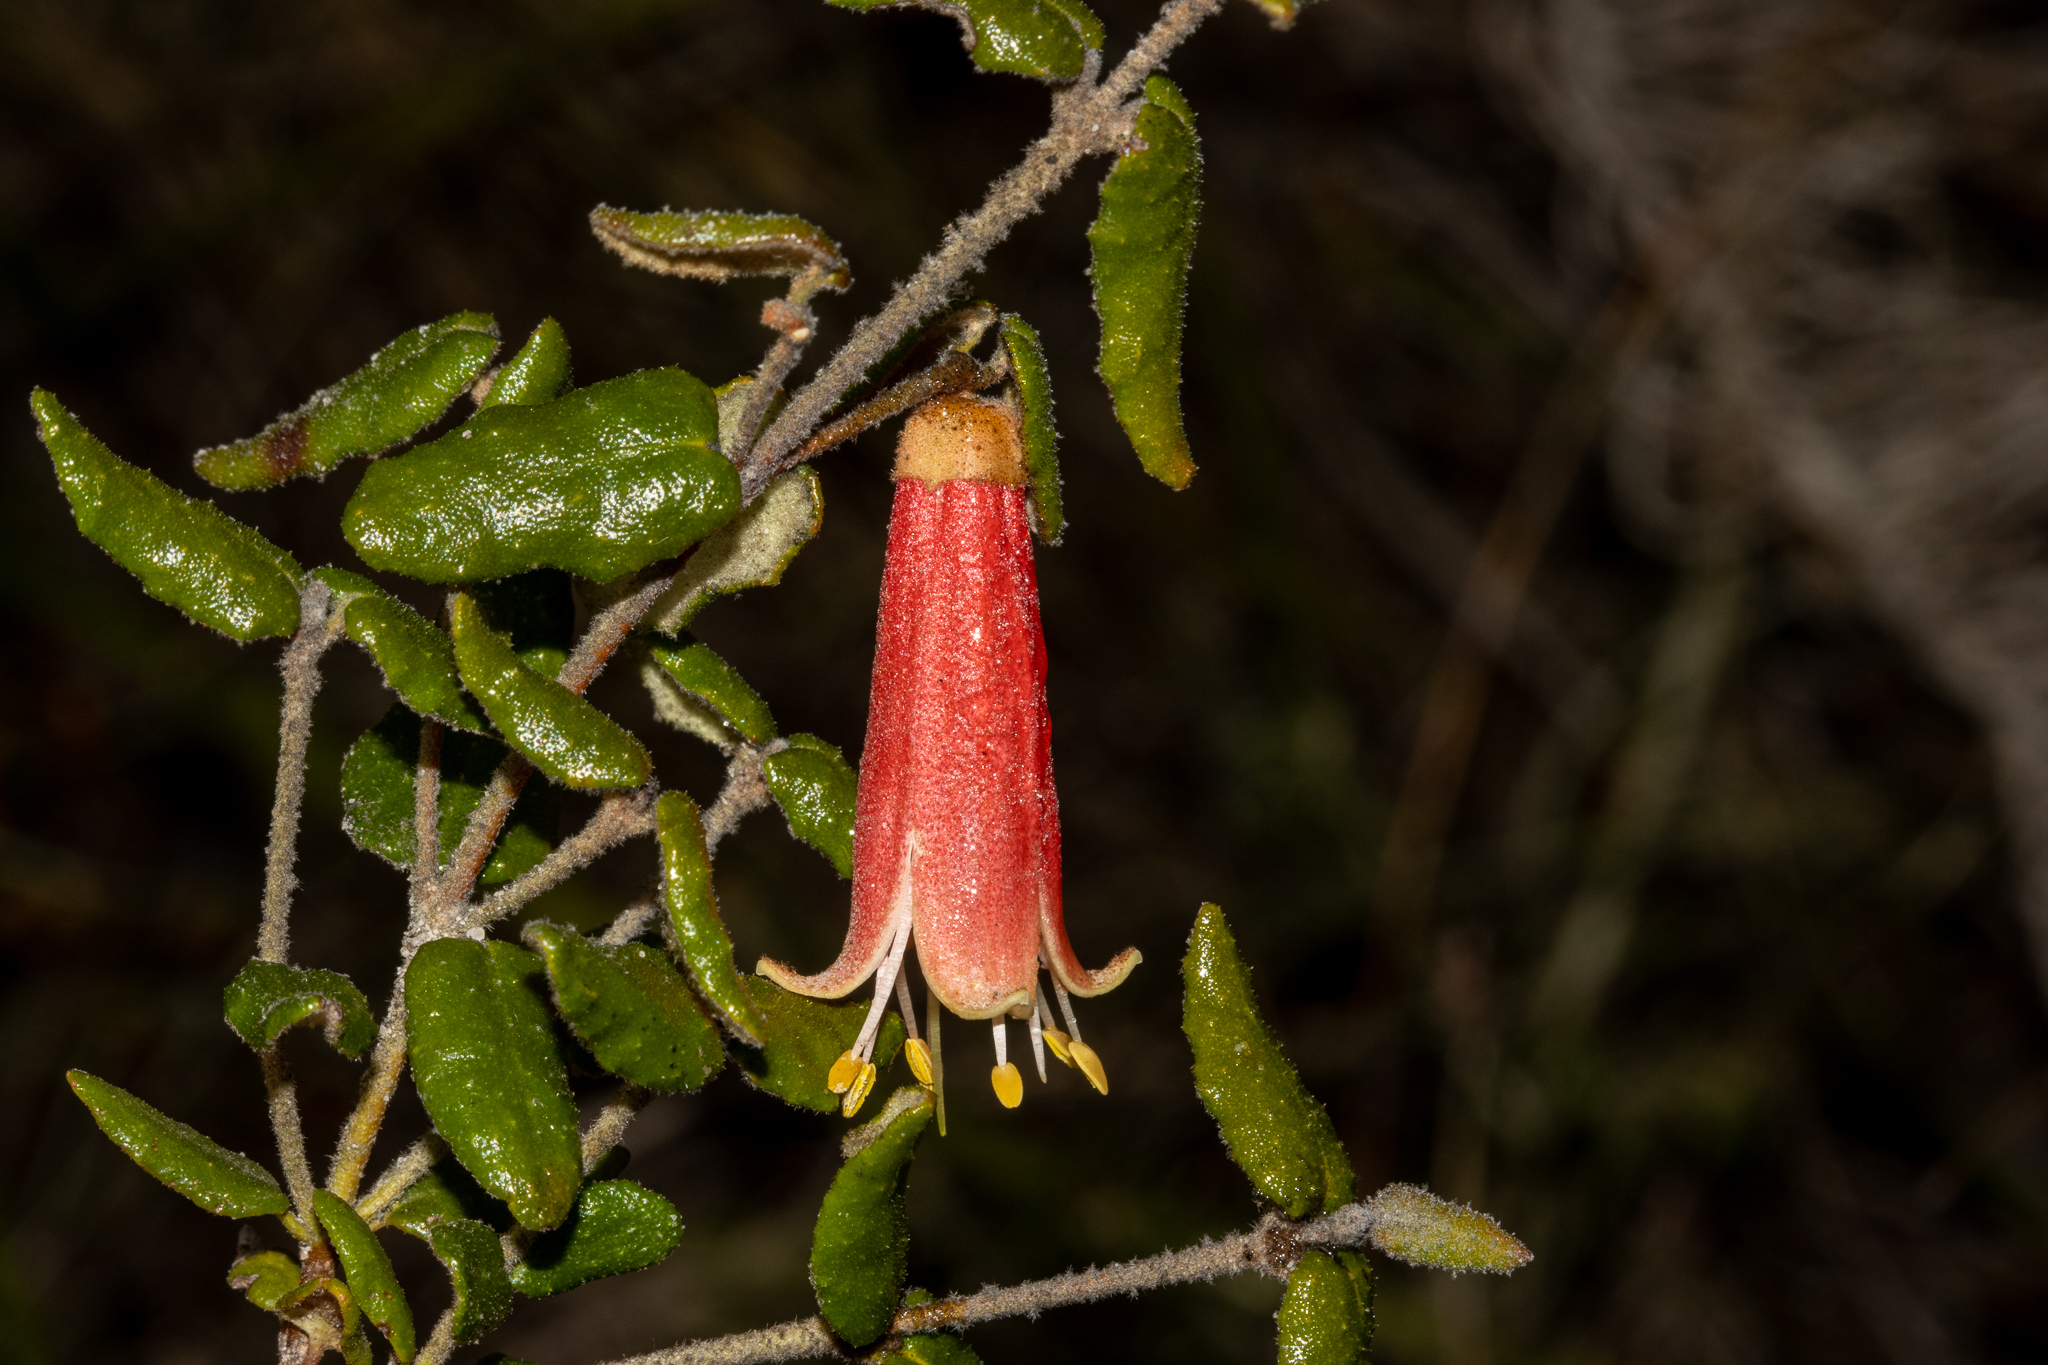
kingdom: Plantae
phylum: Tracheophyta
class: Magnoliopsida
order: Sapindales
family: Rutaceae
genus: Correa
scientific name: Correa reflexa
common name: Common correa
